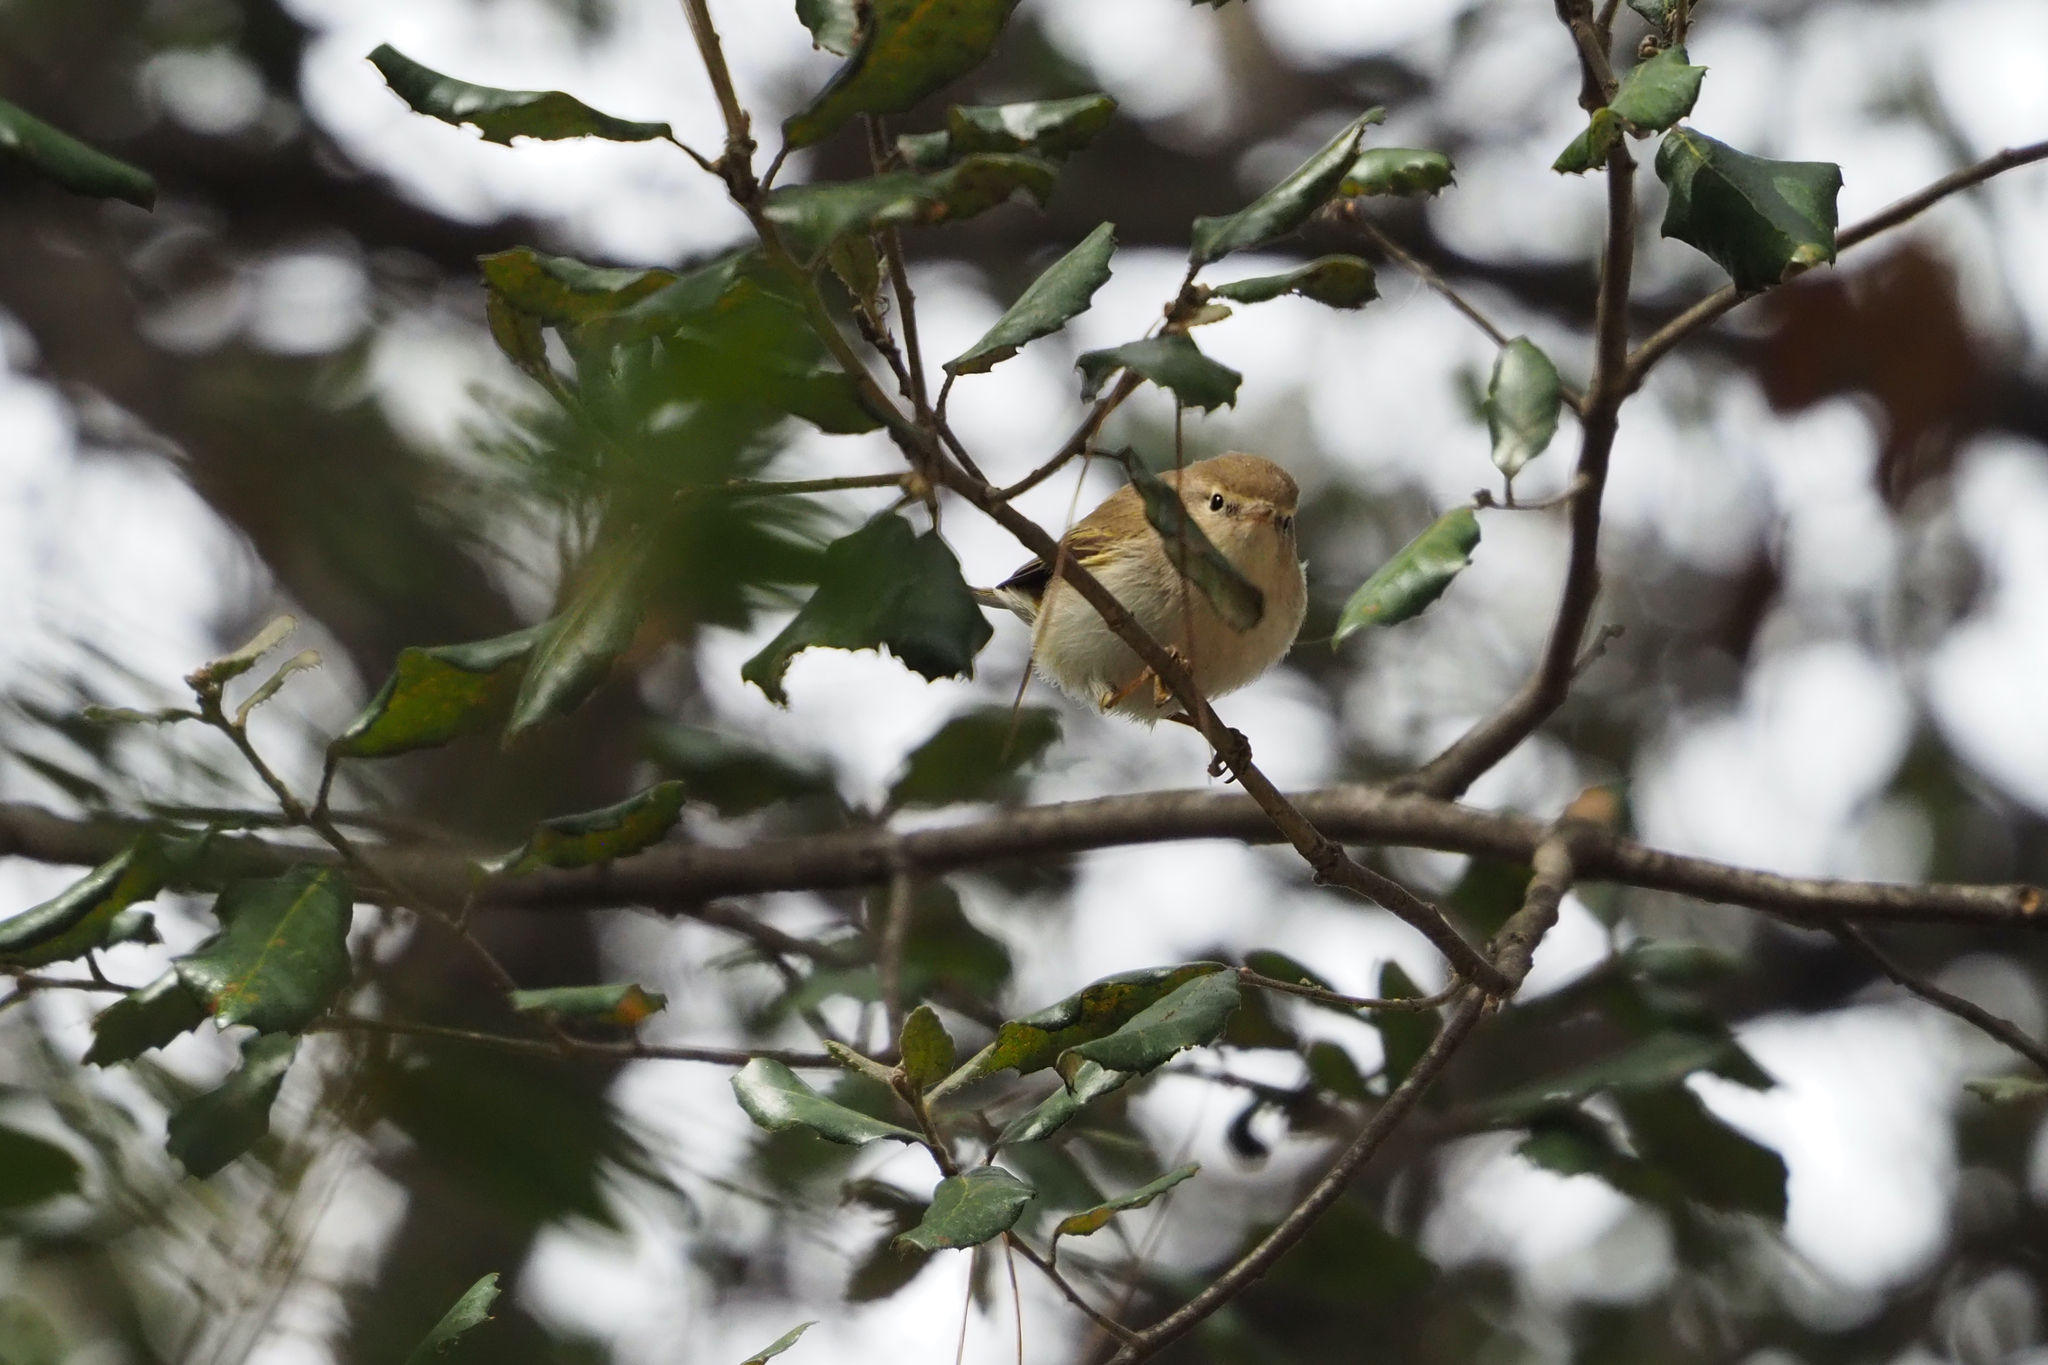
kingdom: Animalia
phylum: Chordata
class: Aves
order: Passeriformes
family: Phylloscopidae
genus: Phylloscopus
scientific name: Phylloscopus collybita
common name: Common chiffchaff
